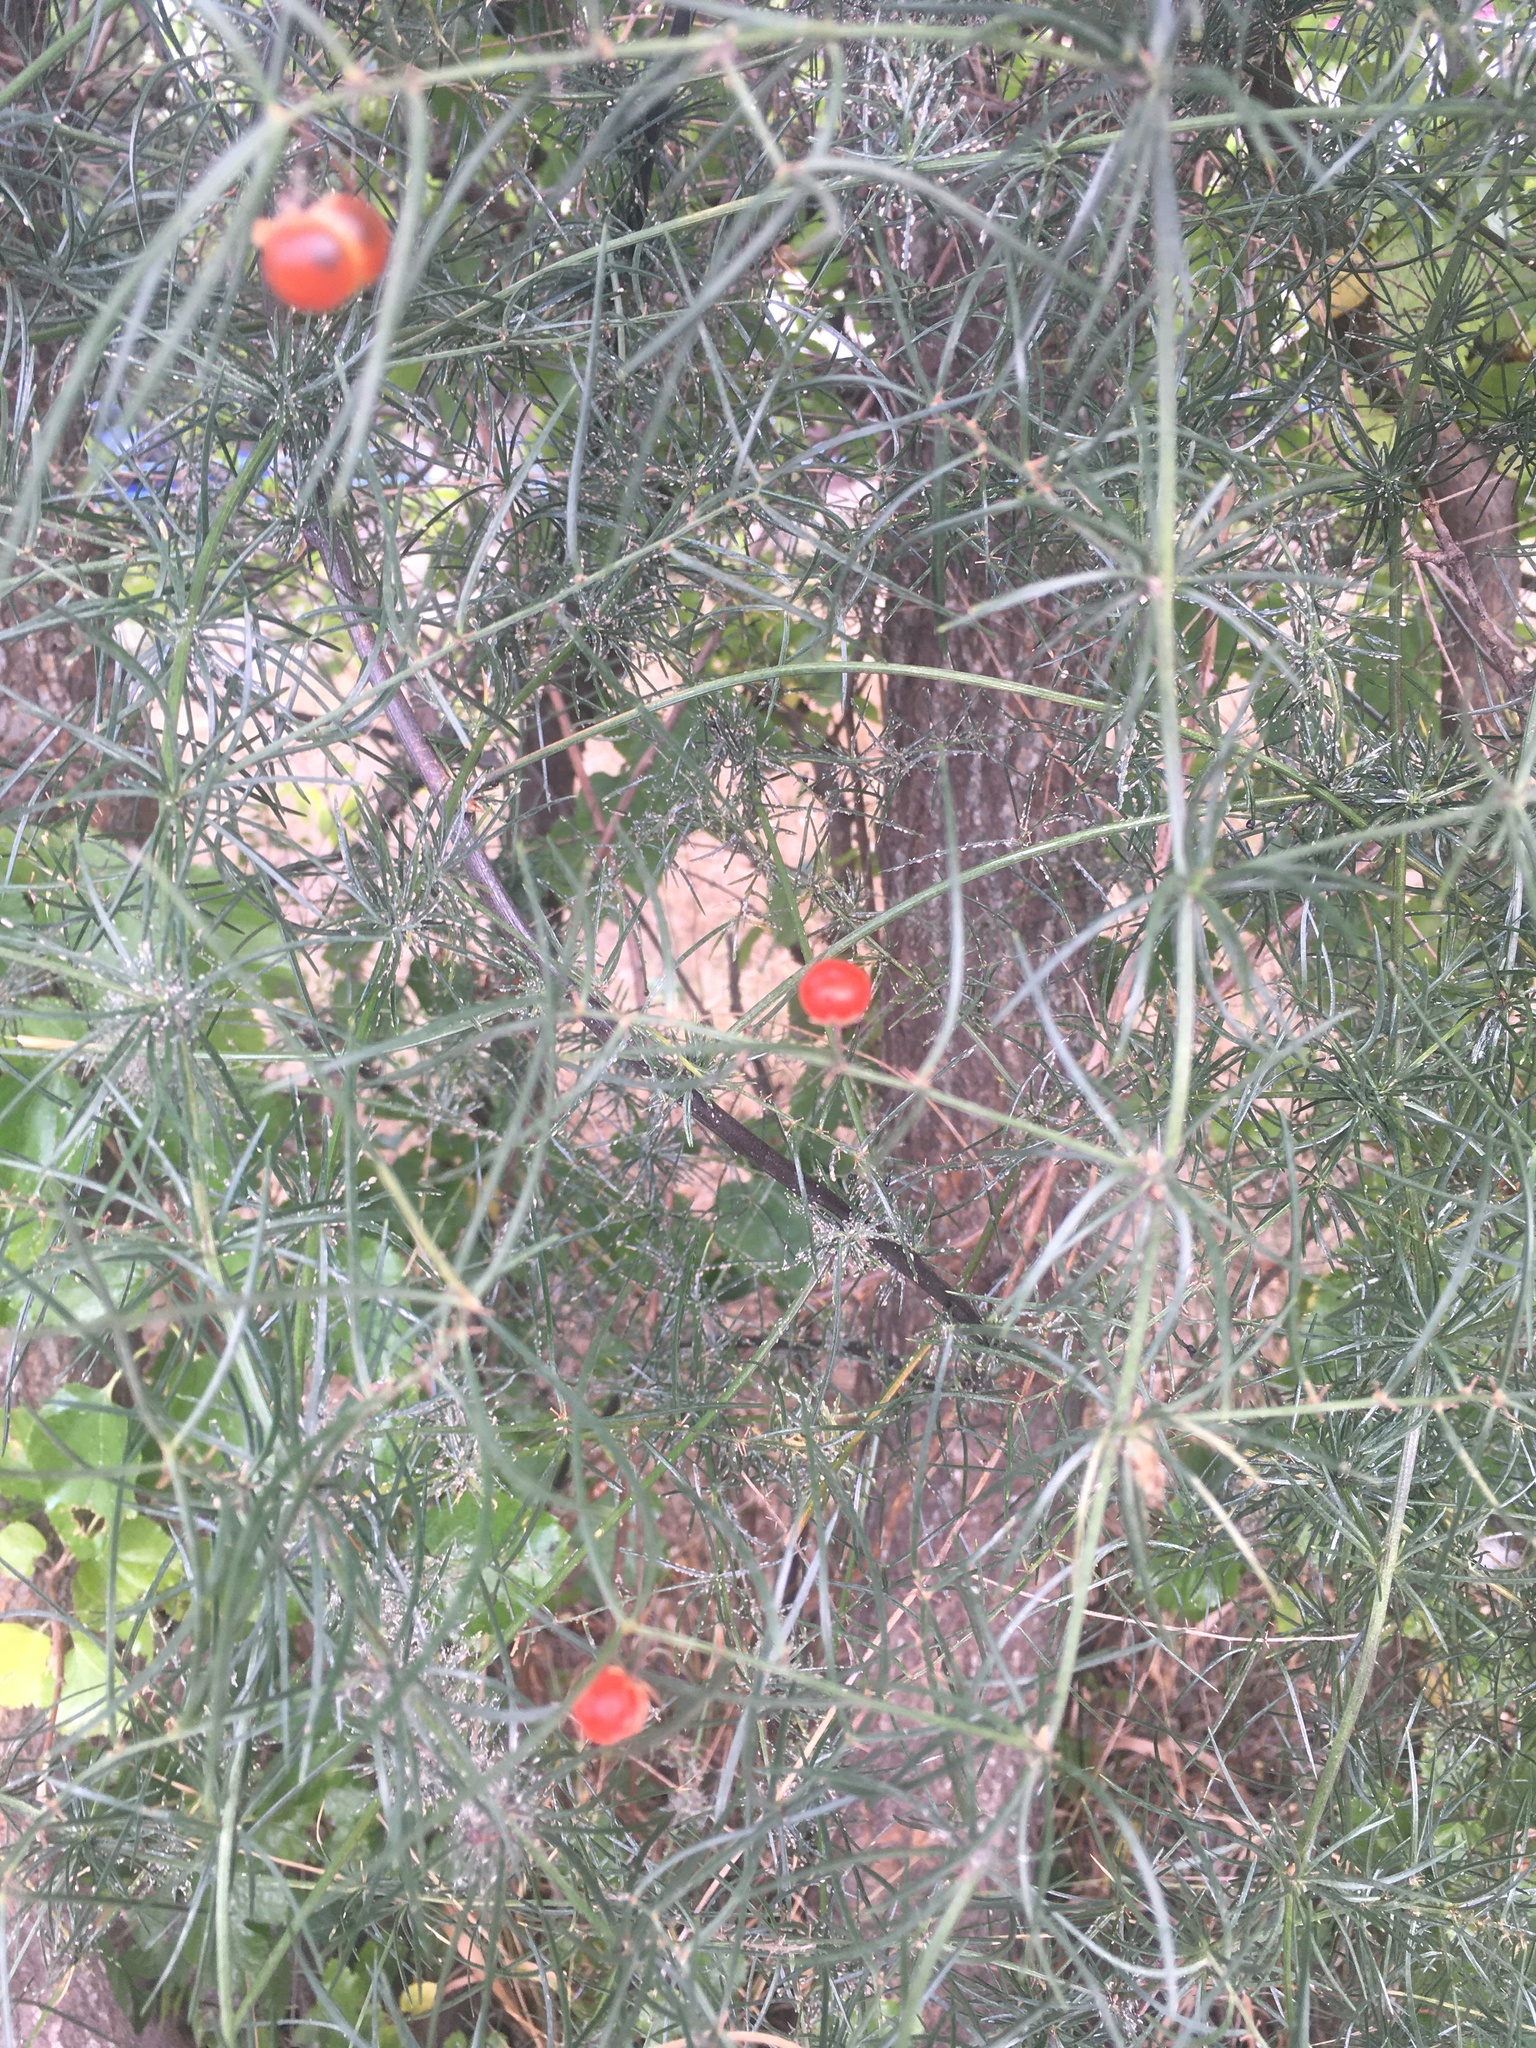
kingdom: Plantae
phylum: Tracheophyta
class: Liliopsida
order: Asparagales
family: Asparagaceae
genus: Asparagus
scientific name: Asparagus verticillatus
